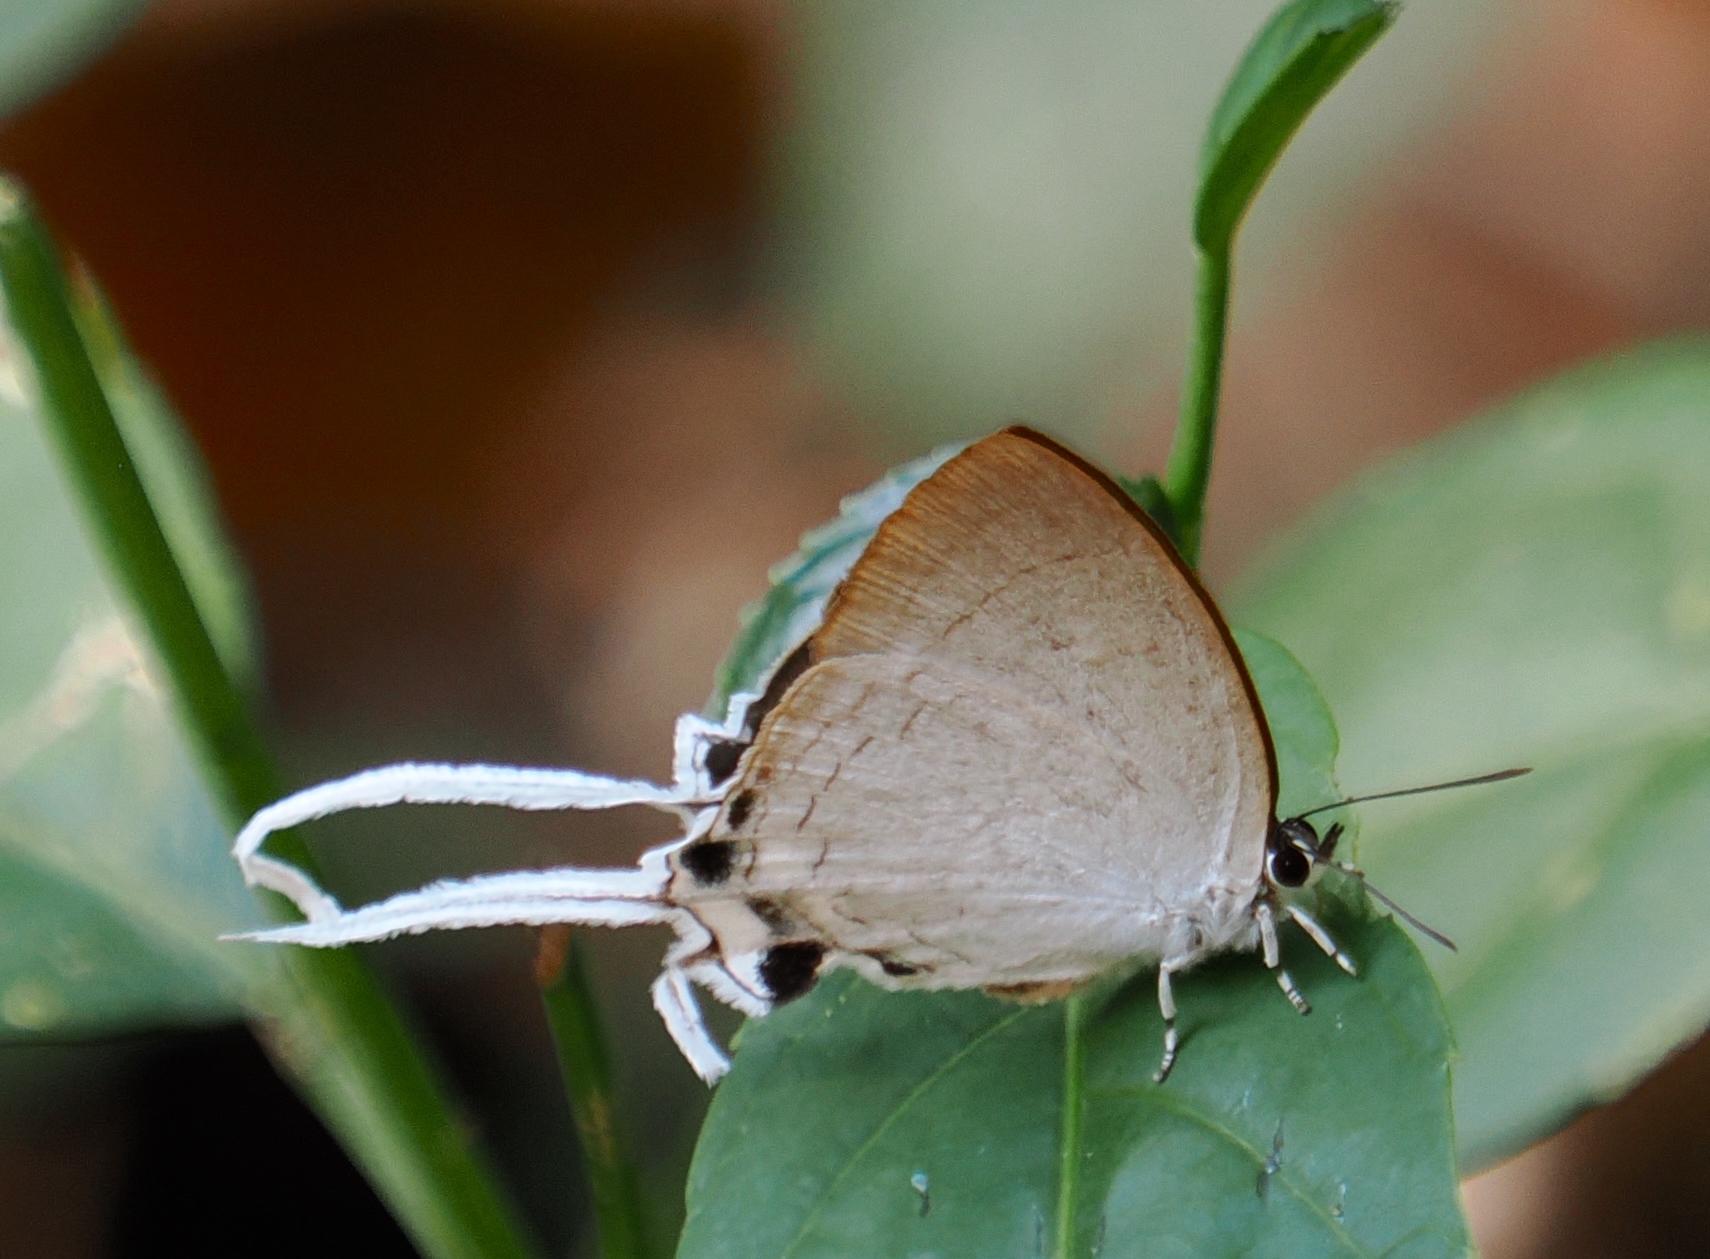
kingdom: Animalia
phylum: Arthropoda
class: Insecta
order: Lepidoptera
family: Lycaenidae
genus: Cheritra
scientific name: Cheritra freja
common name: Common imperial
